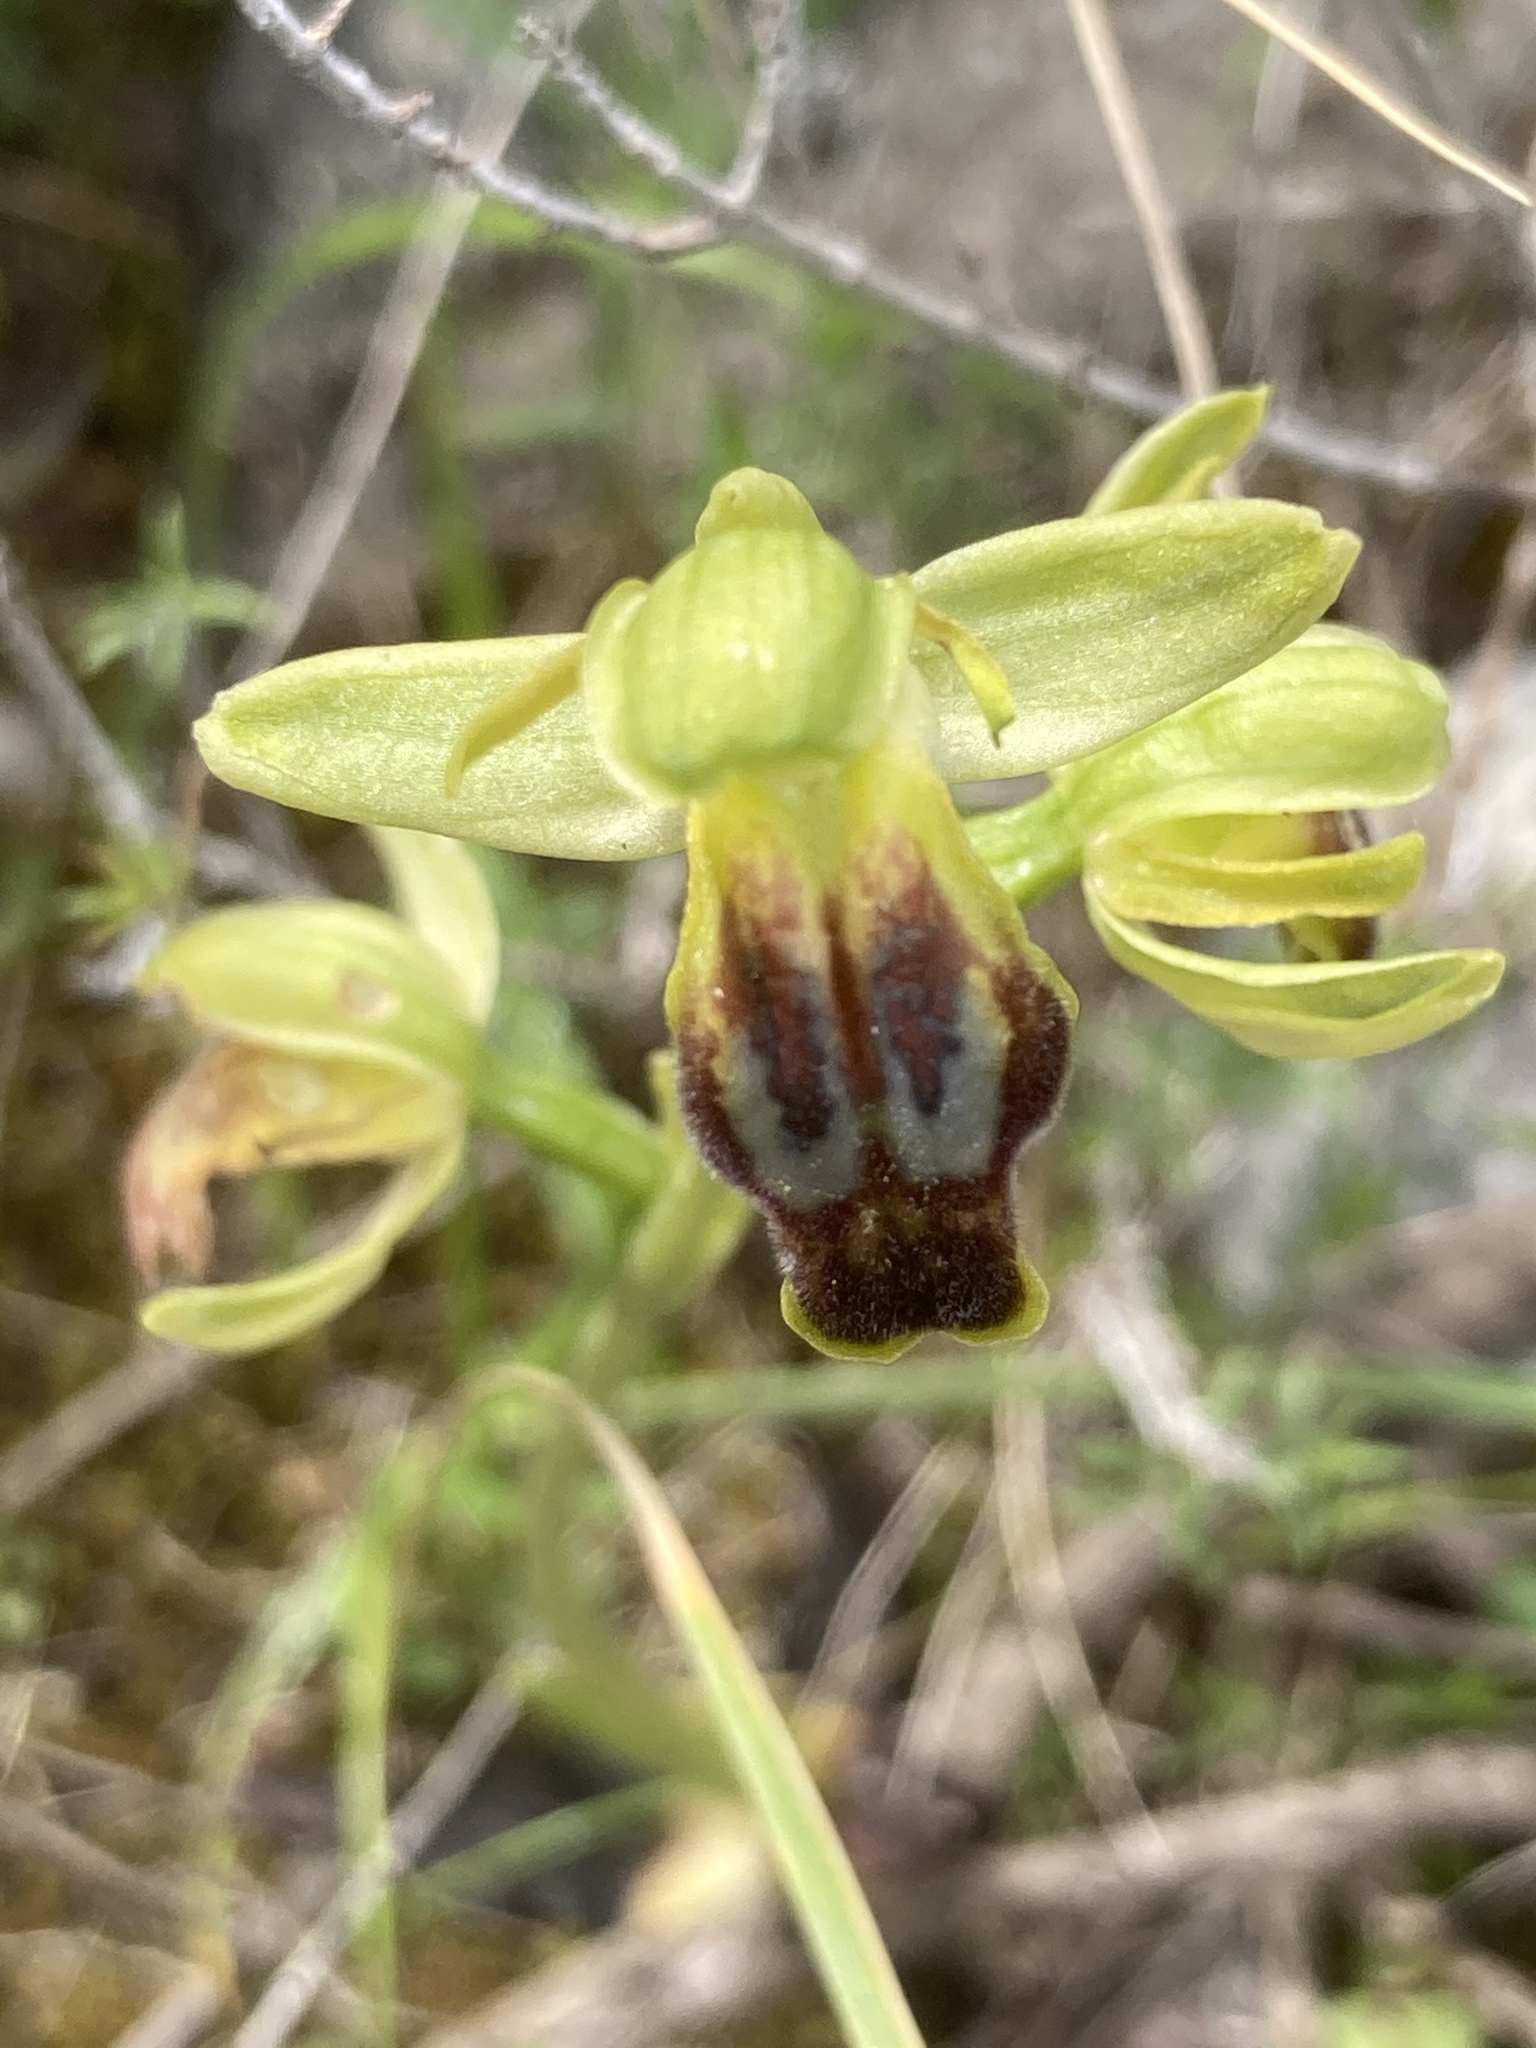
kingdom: Plantae
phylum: Tracheophyta
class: Liliopsida
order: Asparagales
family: Orchidaceae
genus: Ophrys
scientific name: Ophrys fusca
